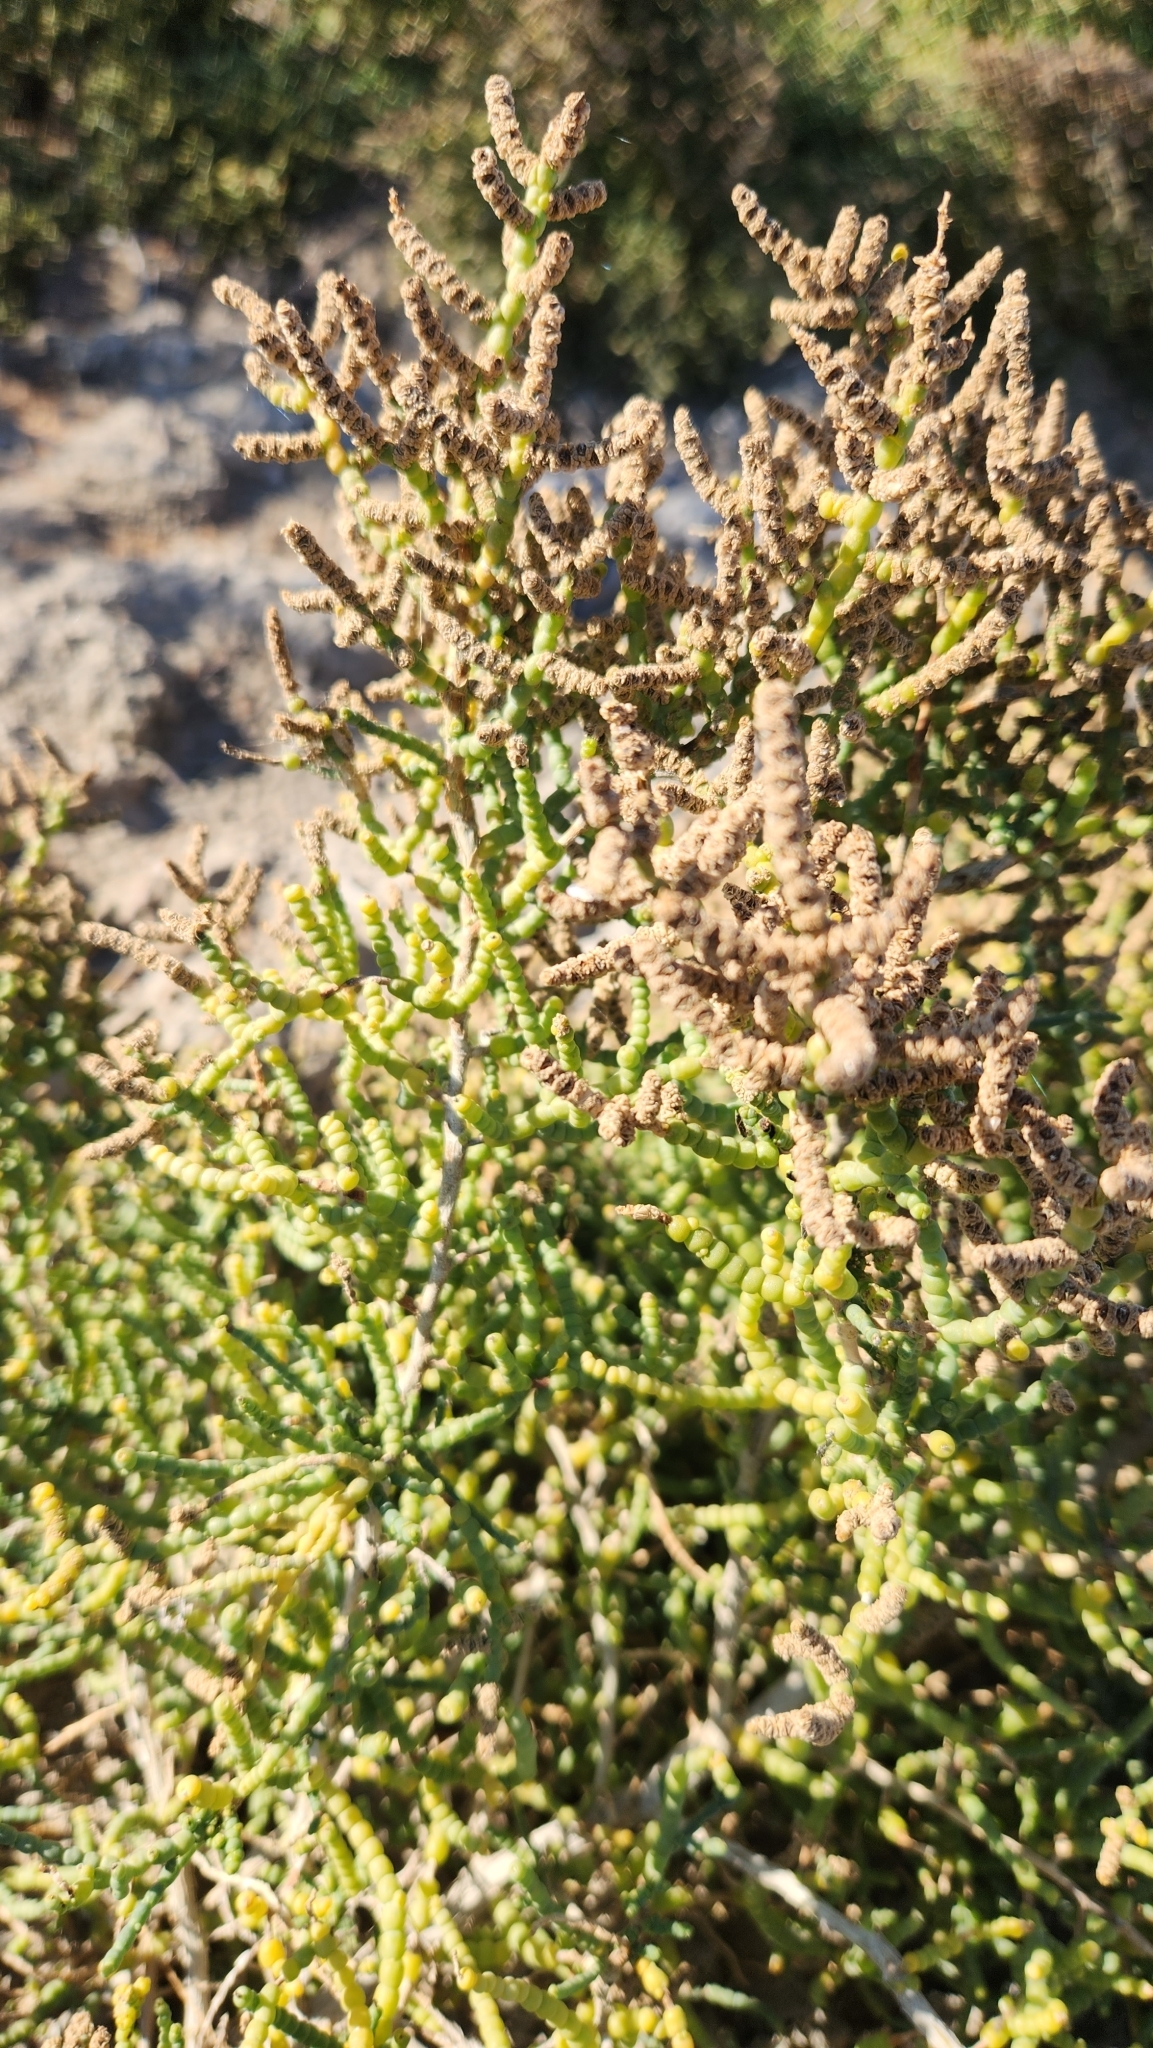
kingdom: Plantae
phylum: Tracheophyta
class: Magnoliopsida
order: Caryophyllales
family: Amaranthaceae
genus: Allenrolfea
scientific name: Allenrolfea occidentalis
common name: Iodine-bush
